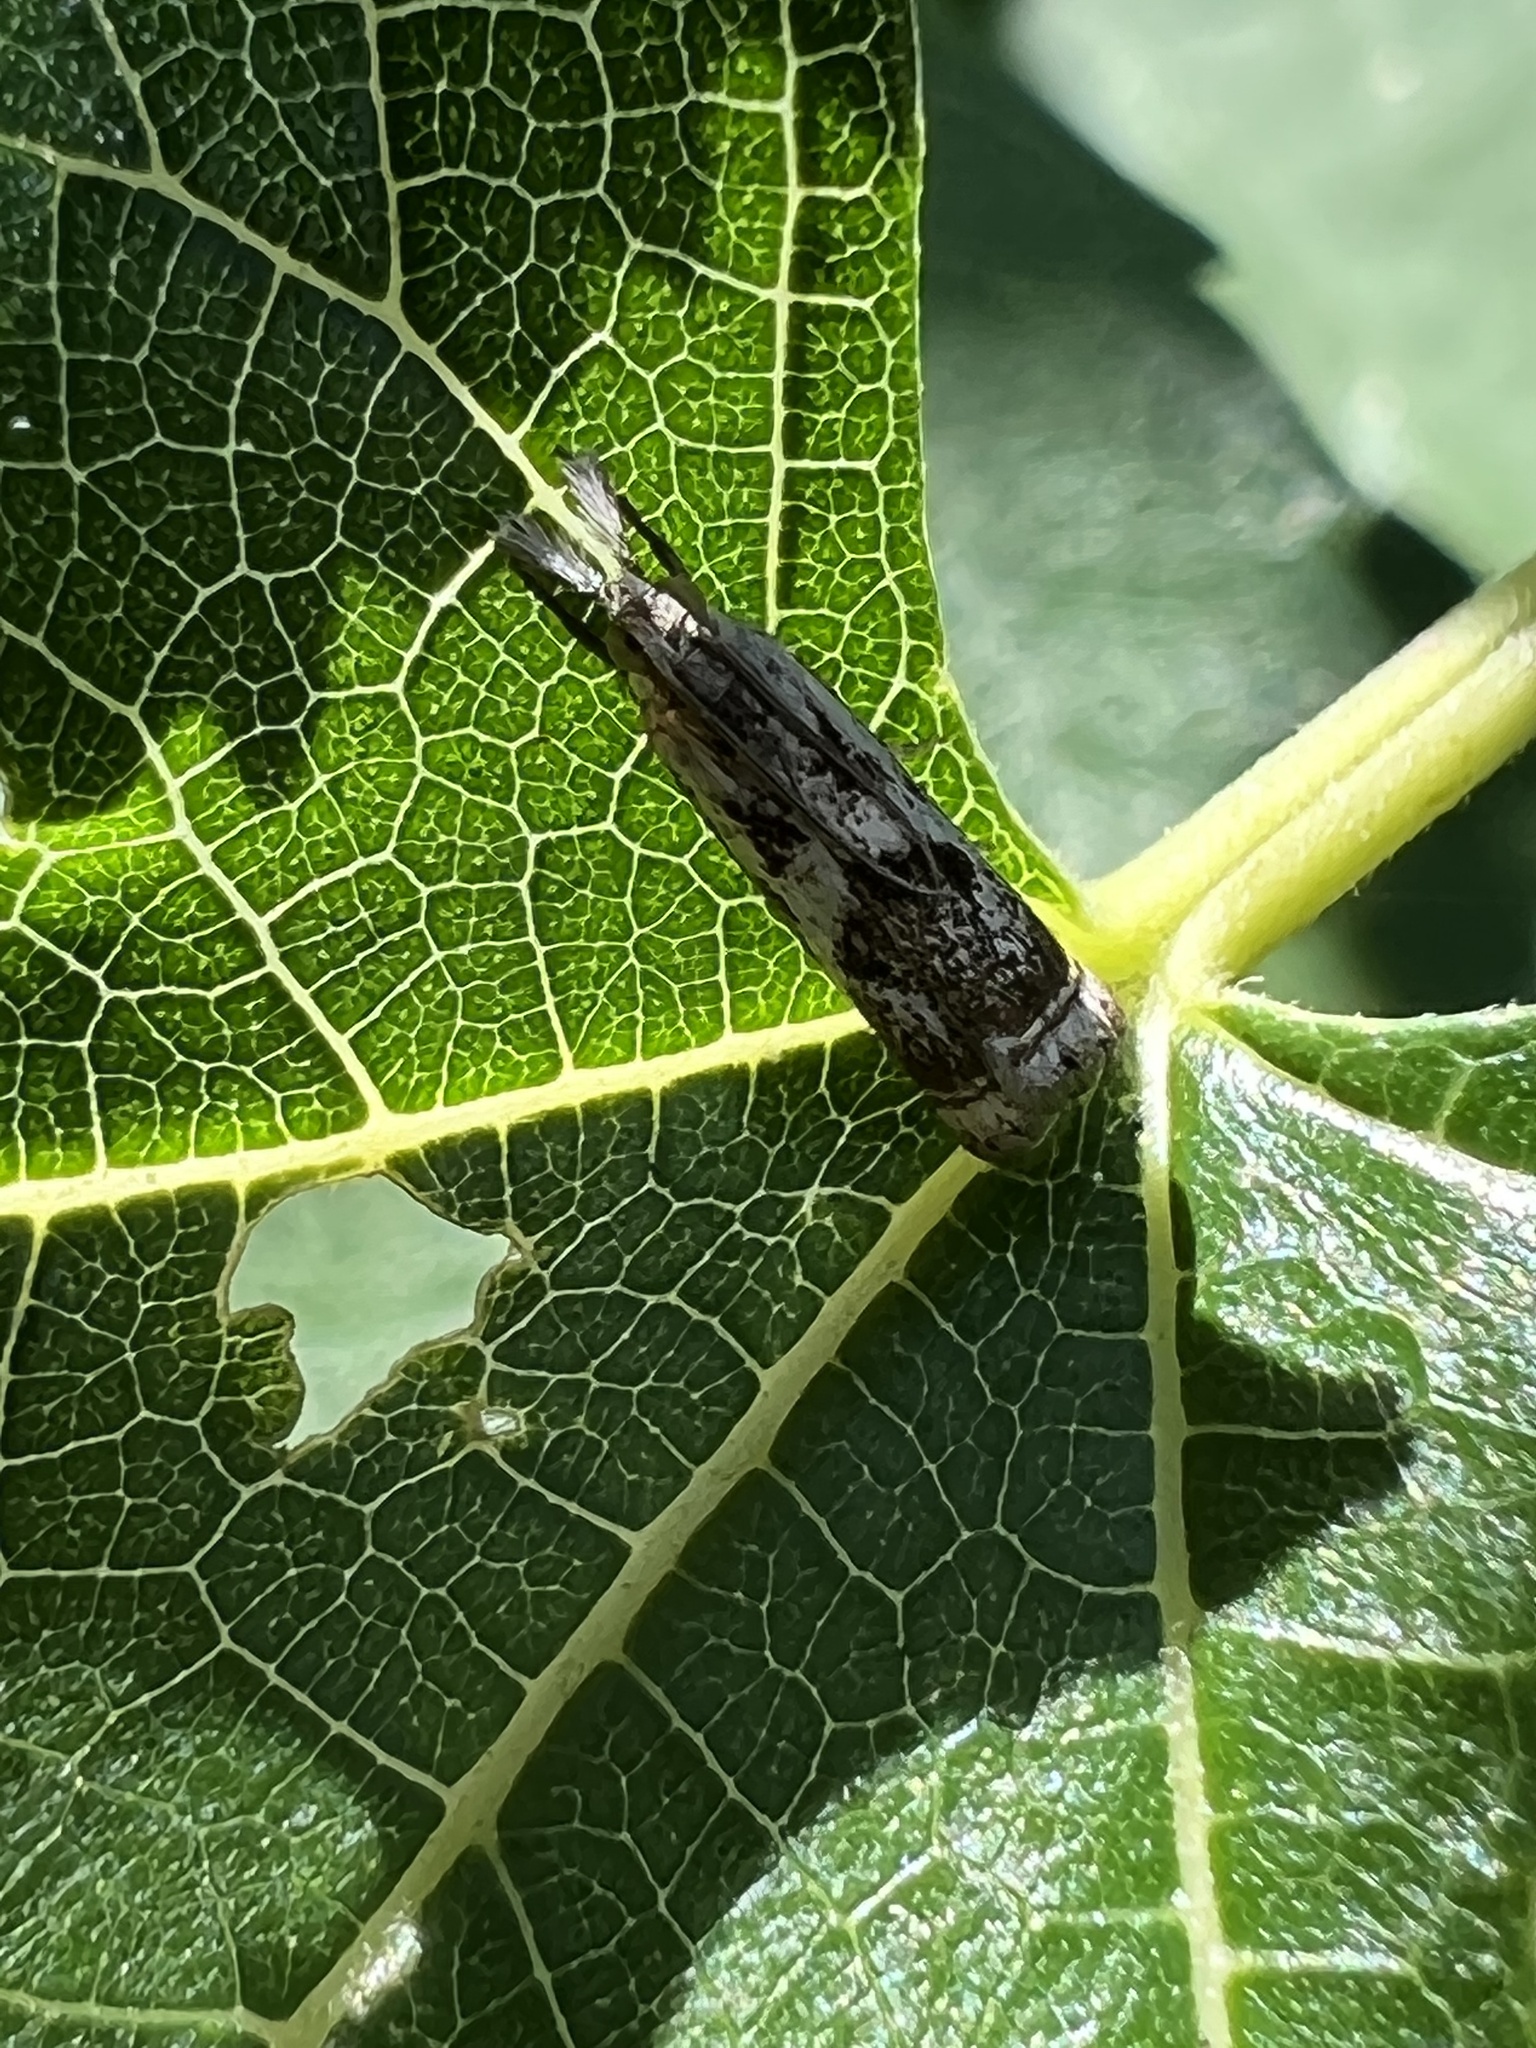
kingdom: Animalia
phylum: Arthropoda
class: Insecta
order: Lepidoptera
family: Crambidae
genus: Microcrambus
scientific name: Microcrambus elegans
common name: Elegant grass-veneer
